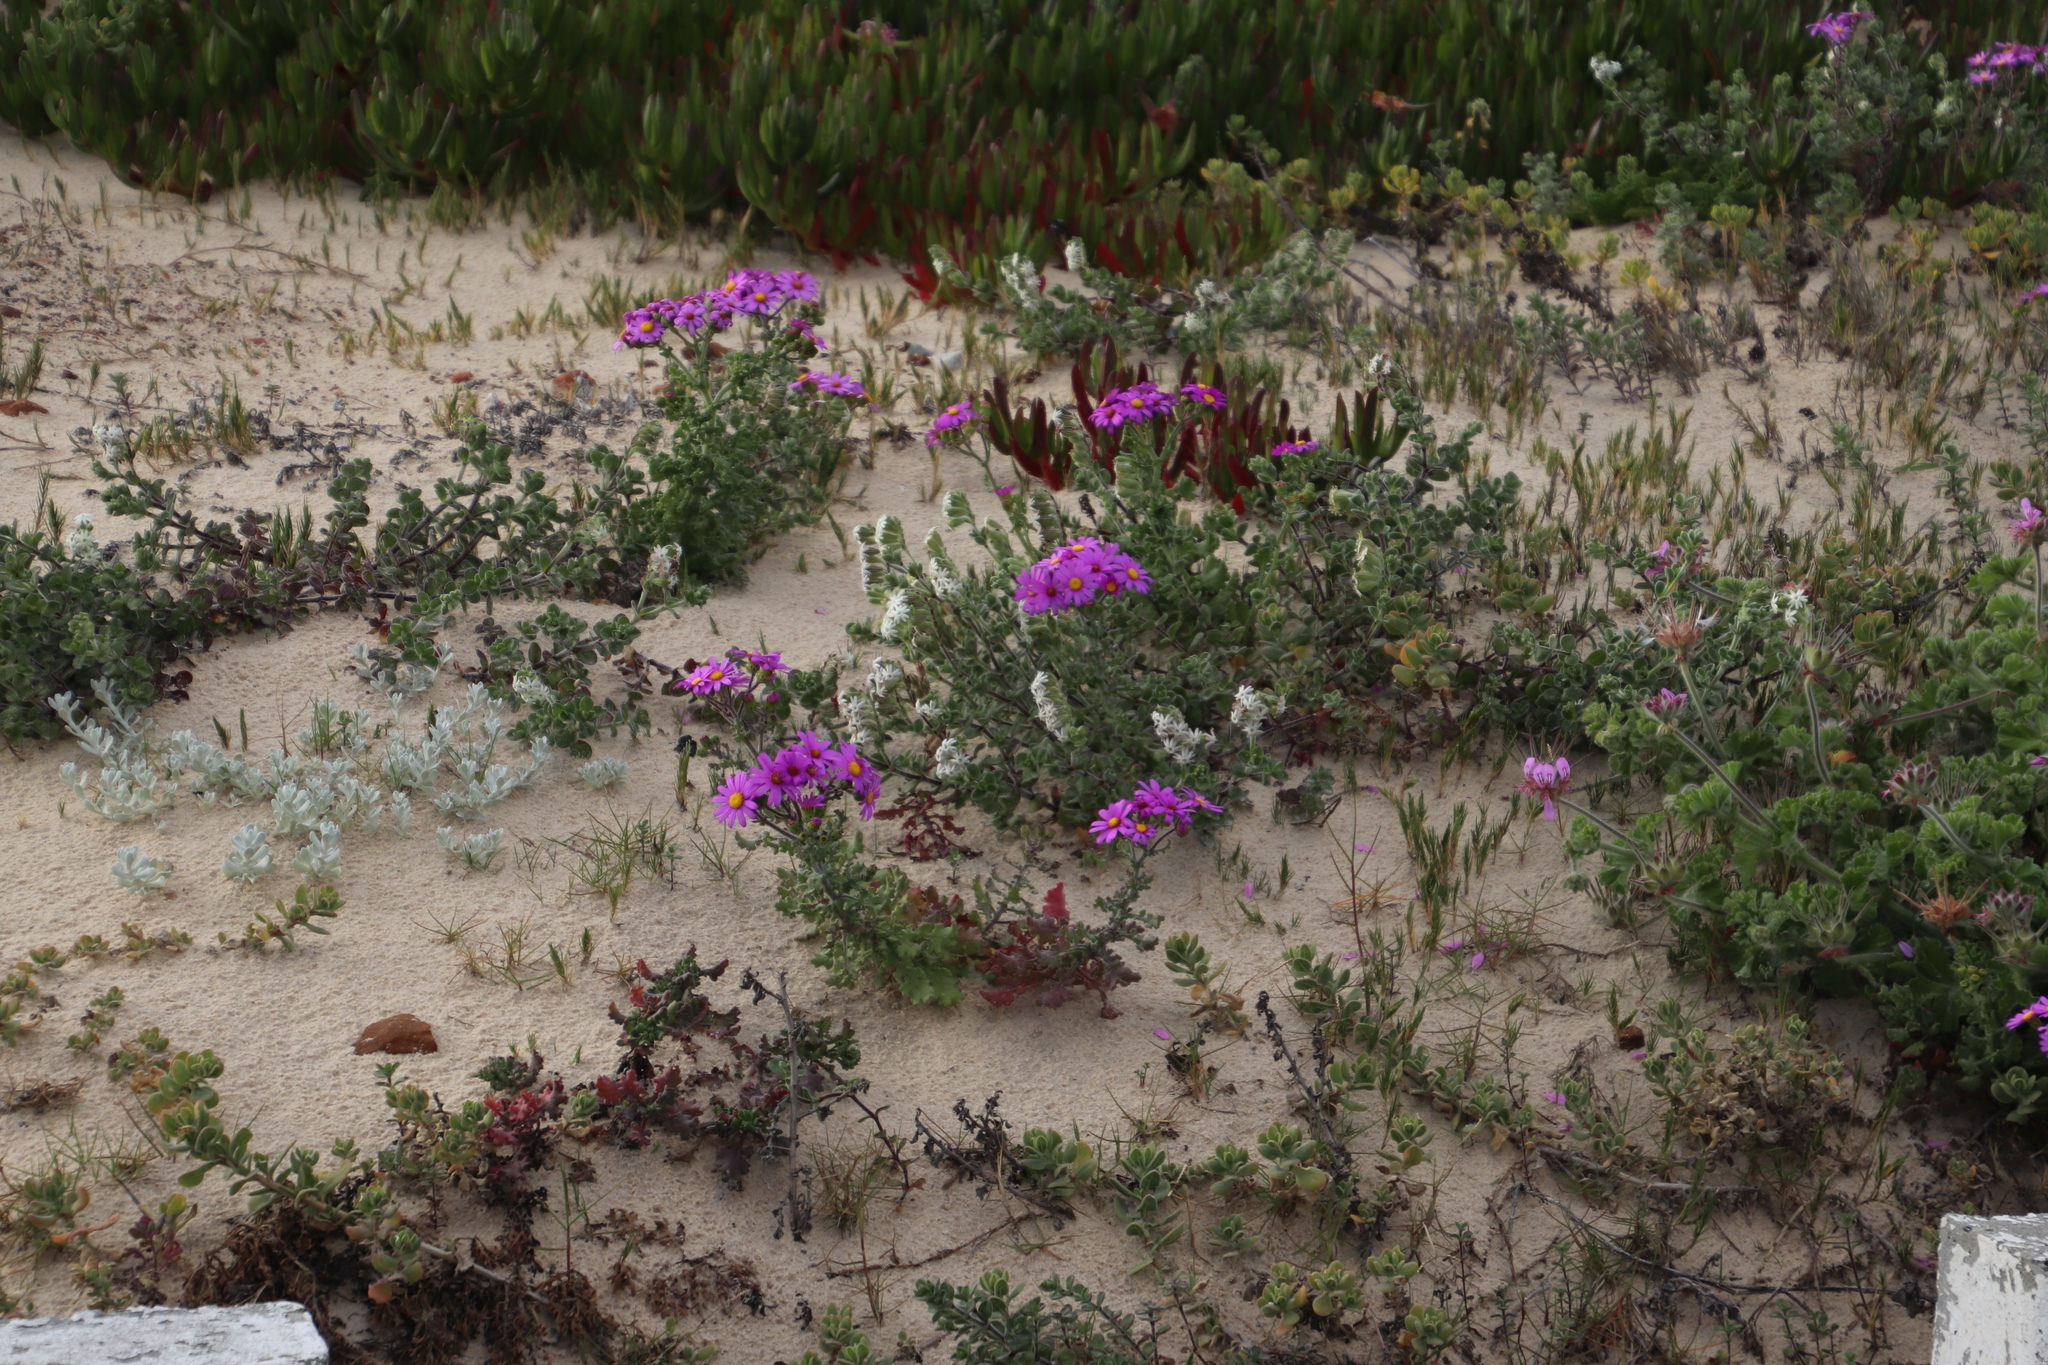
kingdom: Plantae
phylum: Tracheophyta
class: Magnoliopsida
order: Asterales
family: Asteraceae
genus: Senecio
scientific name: Senecio arenarius
